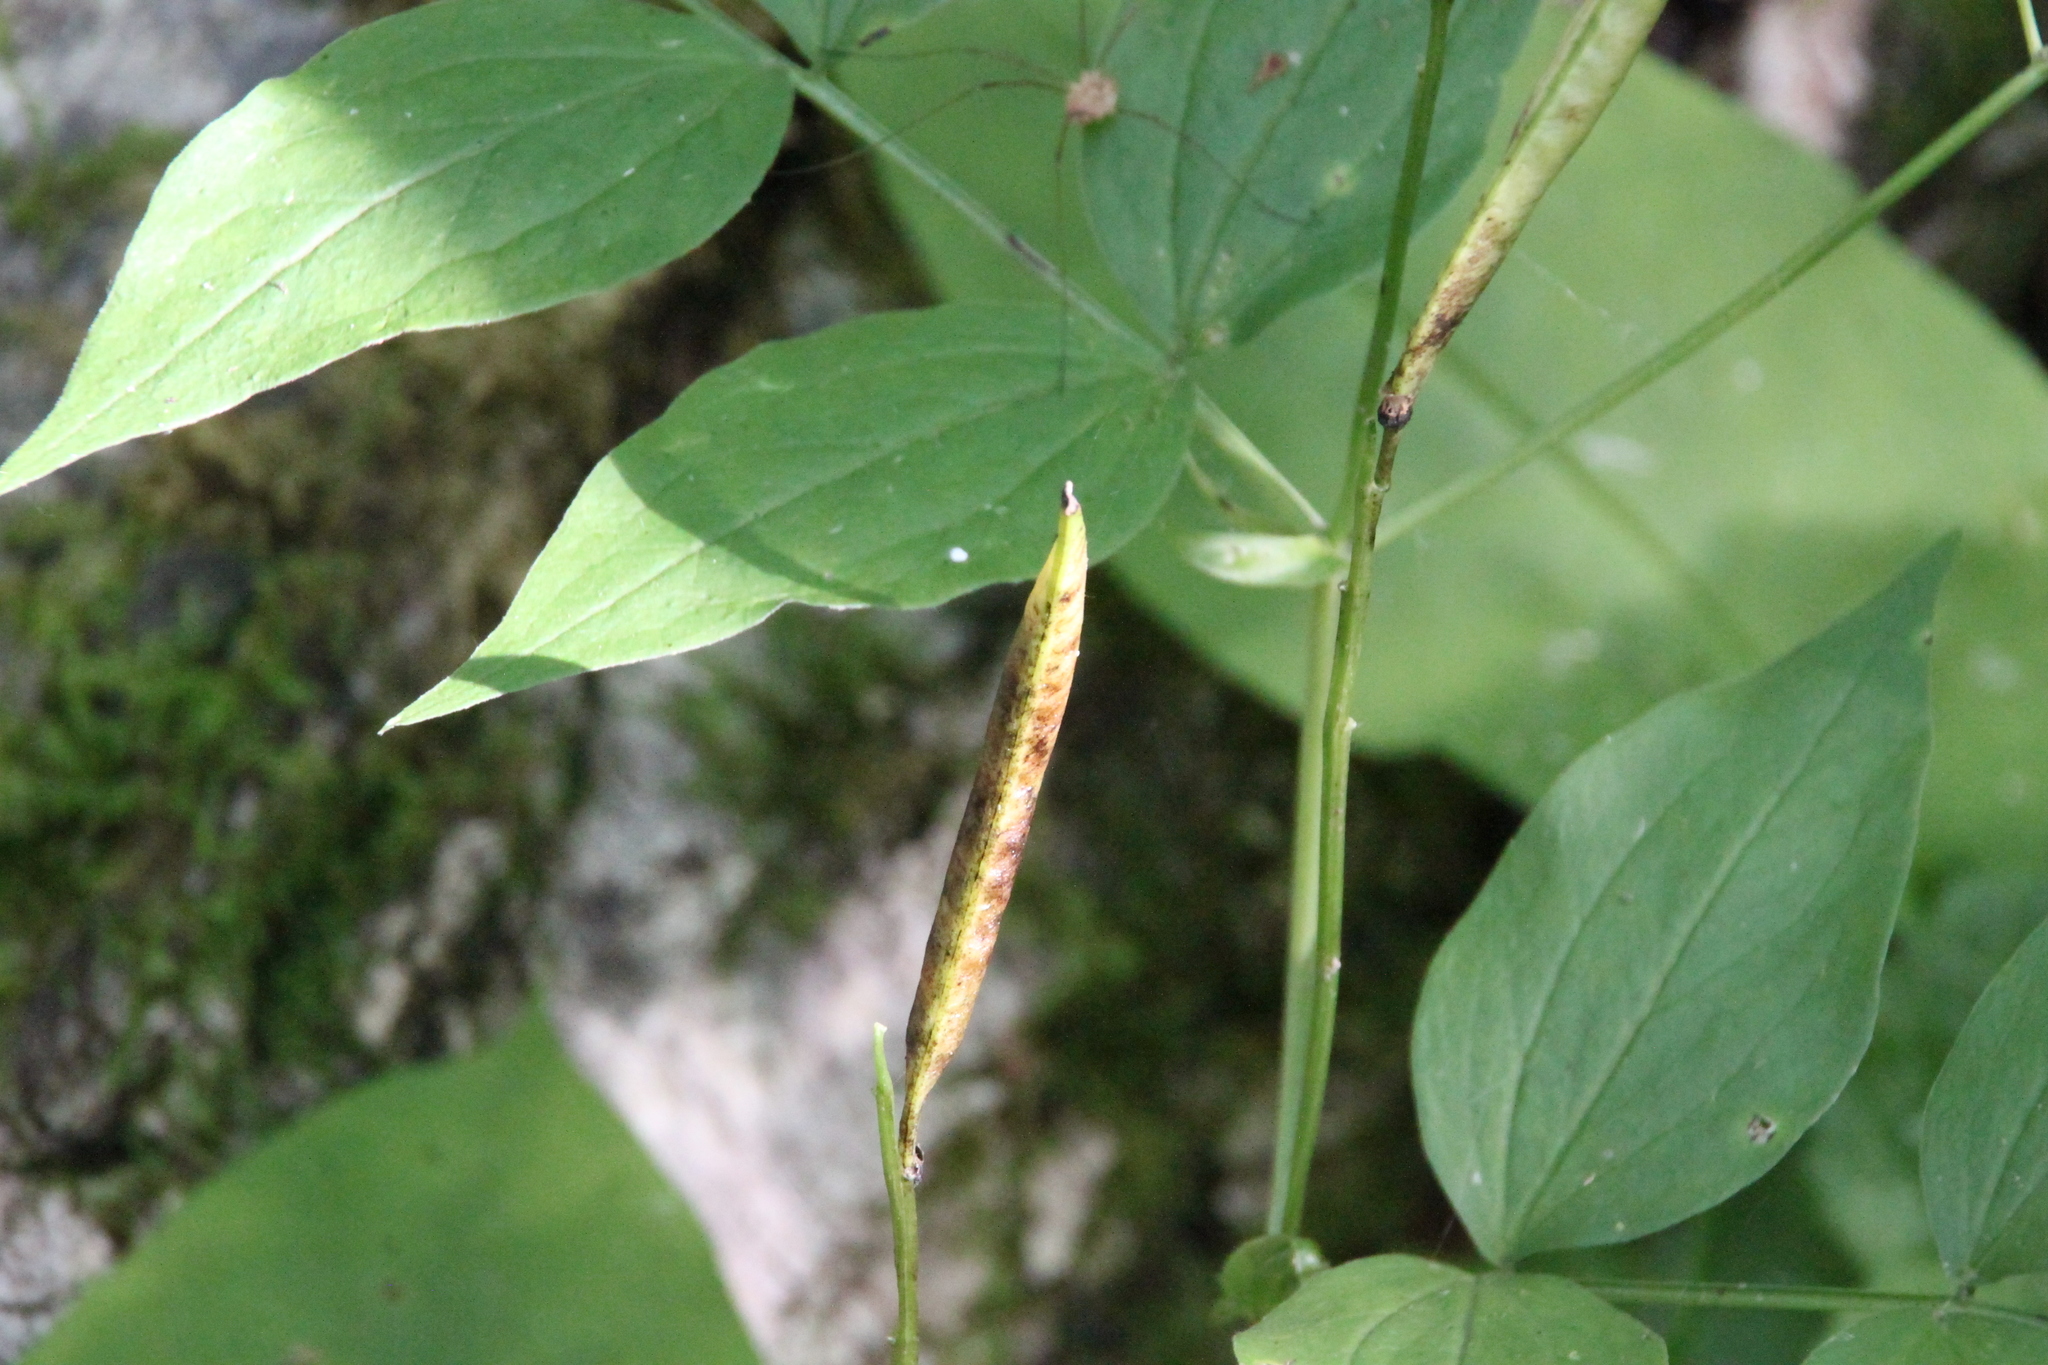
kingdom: Plantae
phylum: Tracheophyta
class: Magnoliopsida
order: Fabales
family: Fabaceae
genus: Lathyrus
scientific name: Lathyrus vernus
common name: Spring pea
